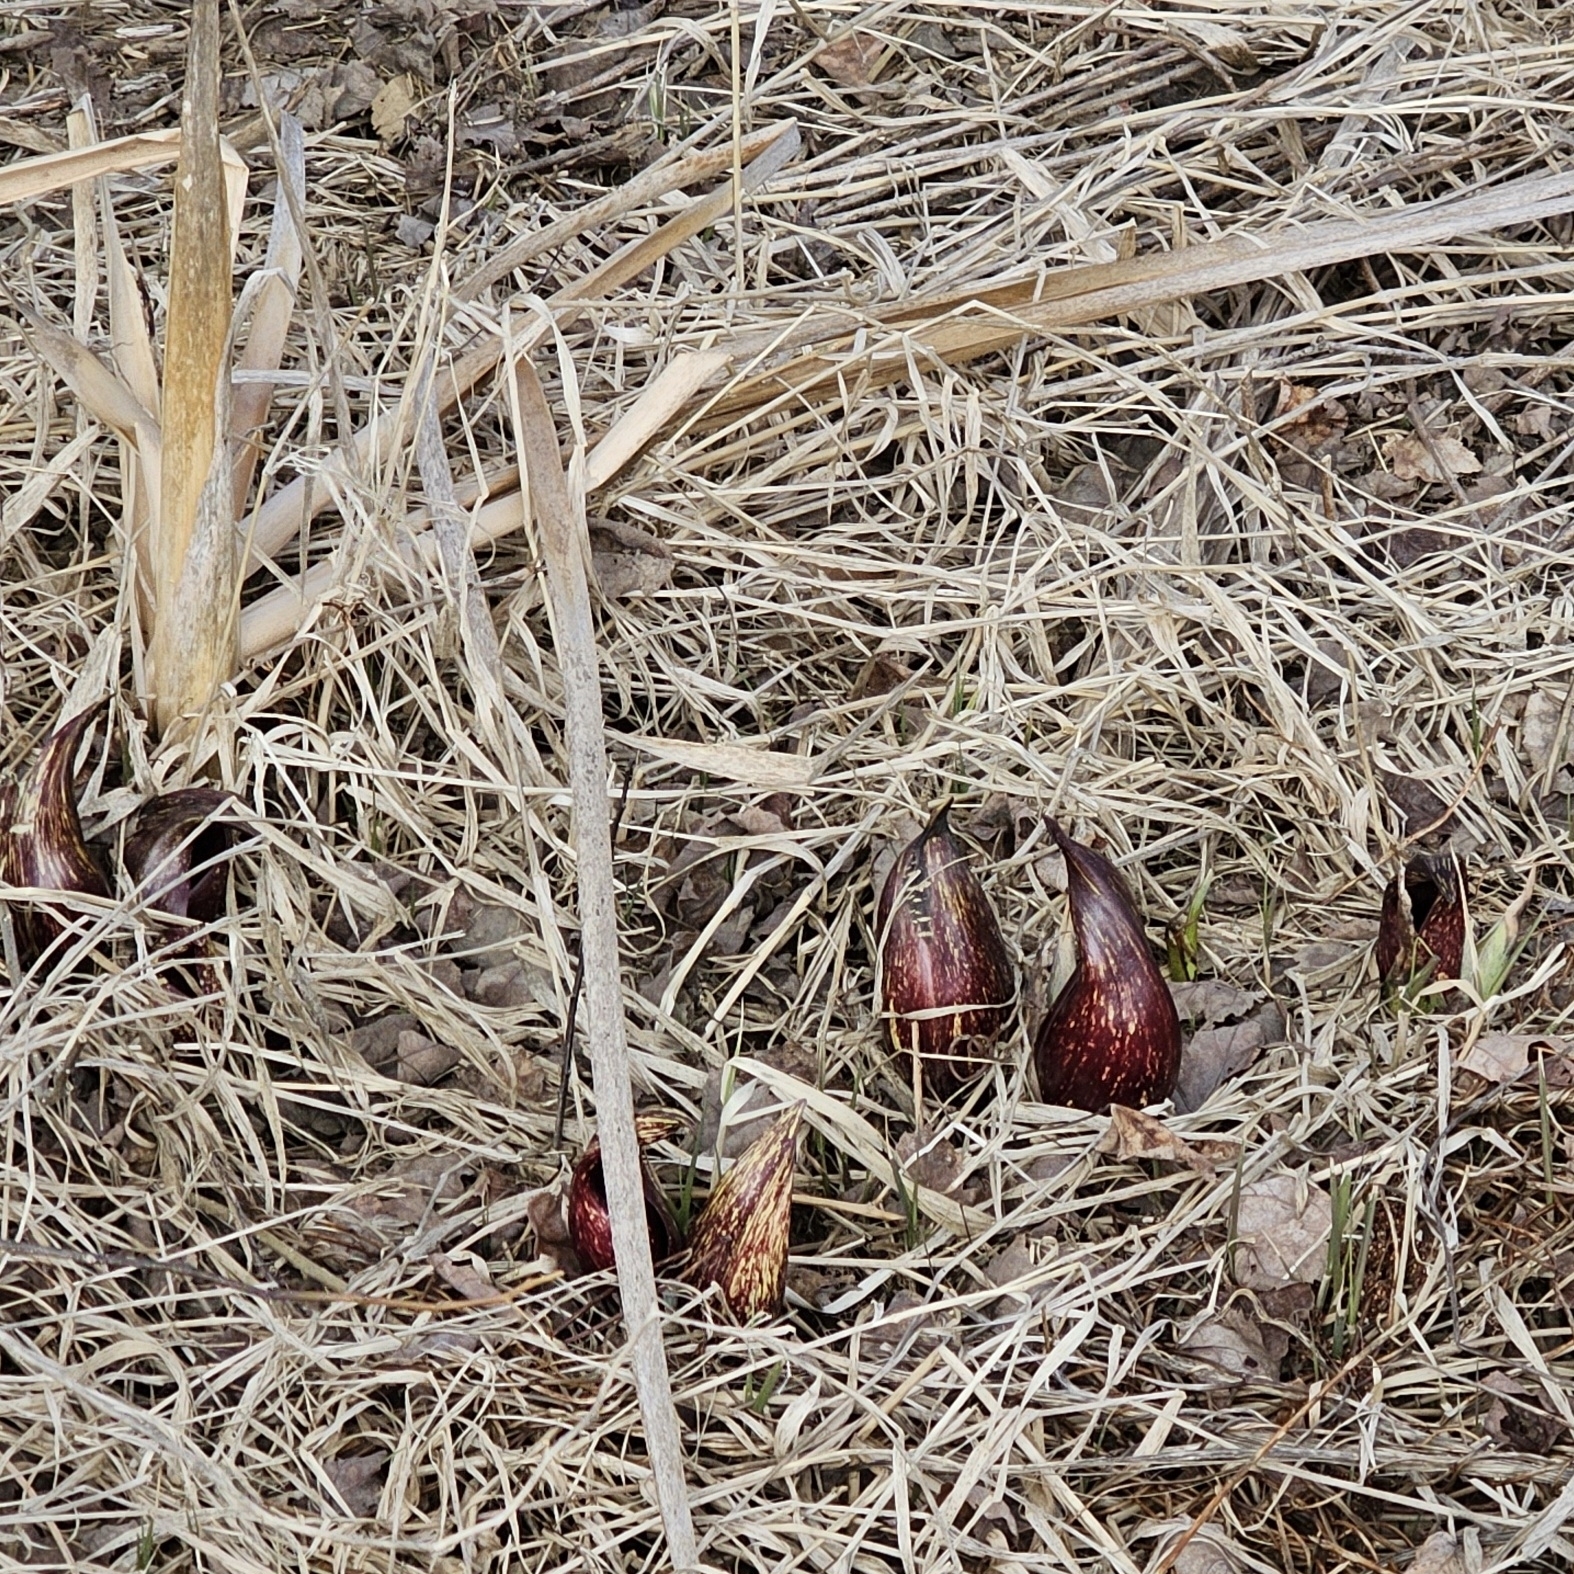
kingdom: Plantae
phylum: Tracheophyta
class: Liliopsida
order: Alismatales
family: Araceae
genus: Symplocarpus
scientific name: Symplocarpus foetidus
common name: Eastern skunk cabbage
